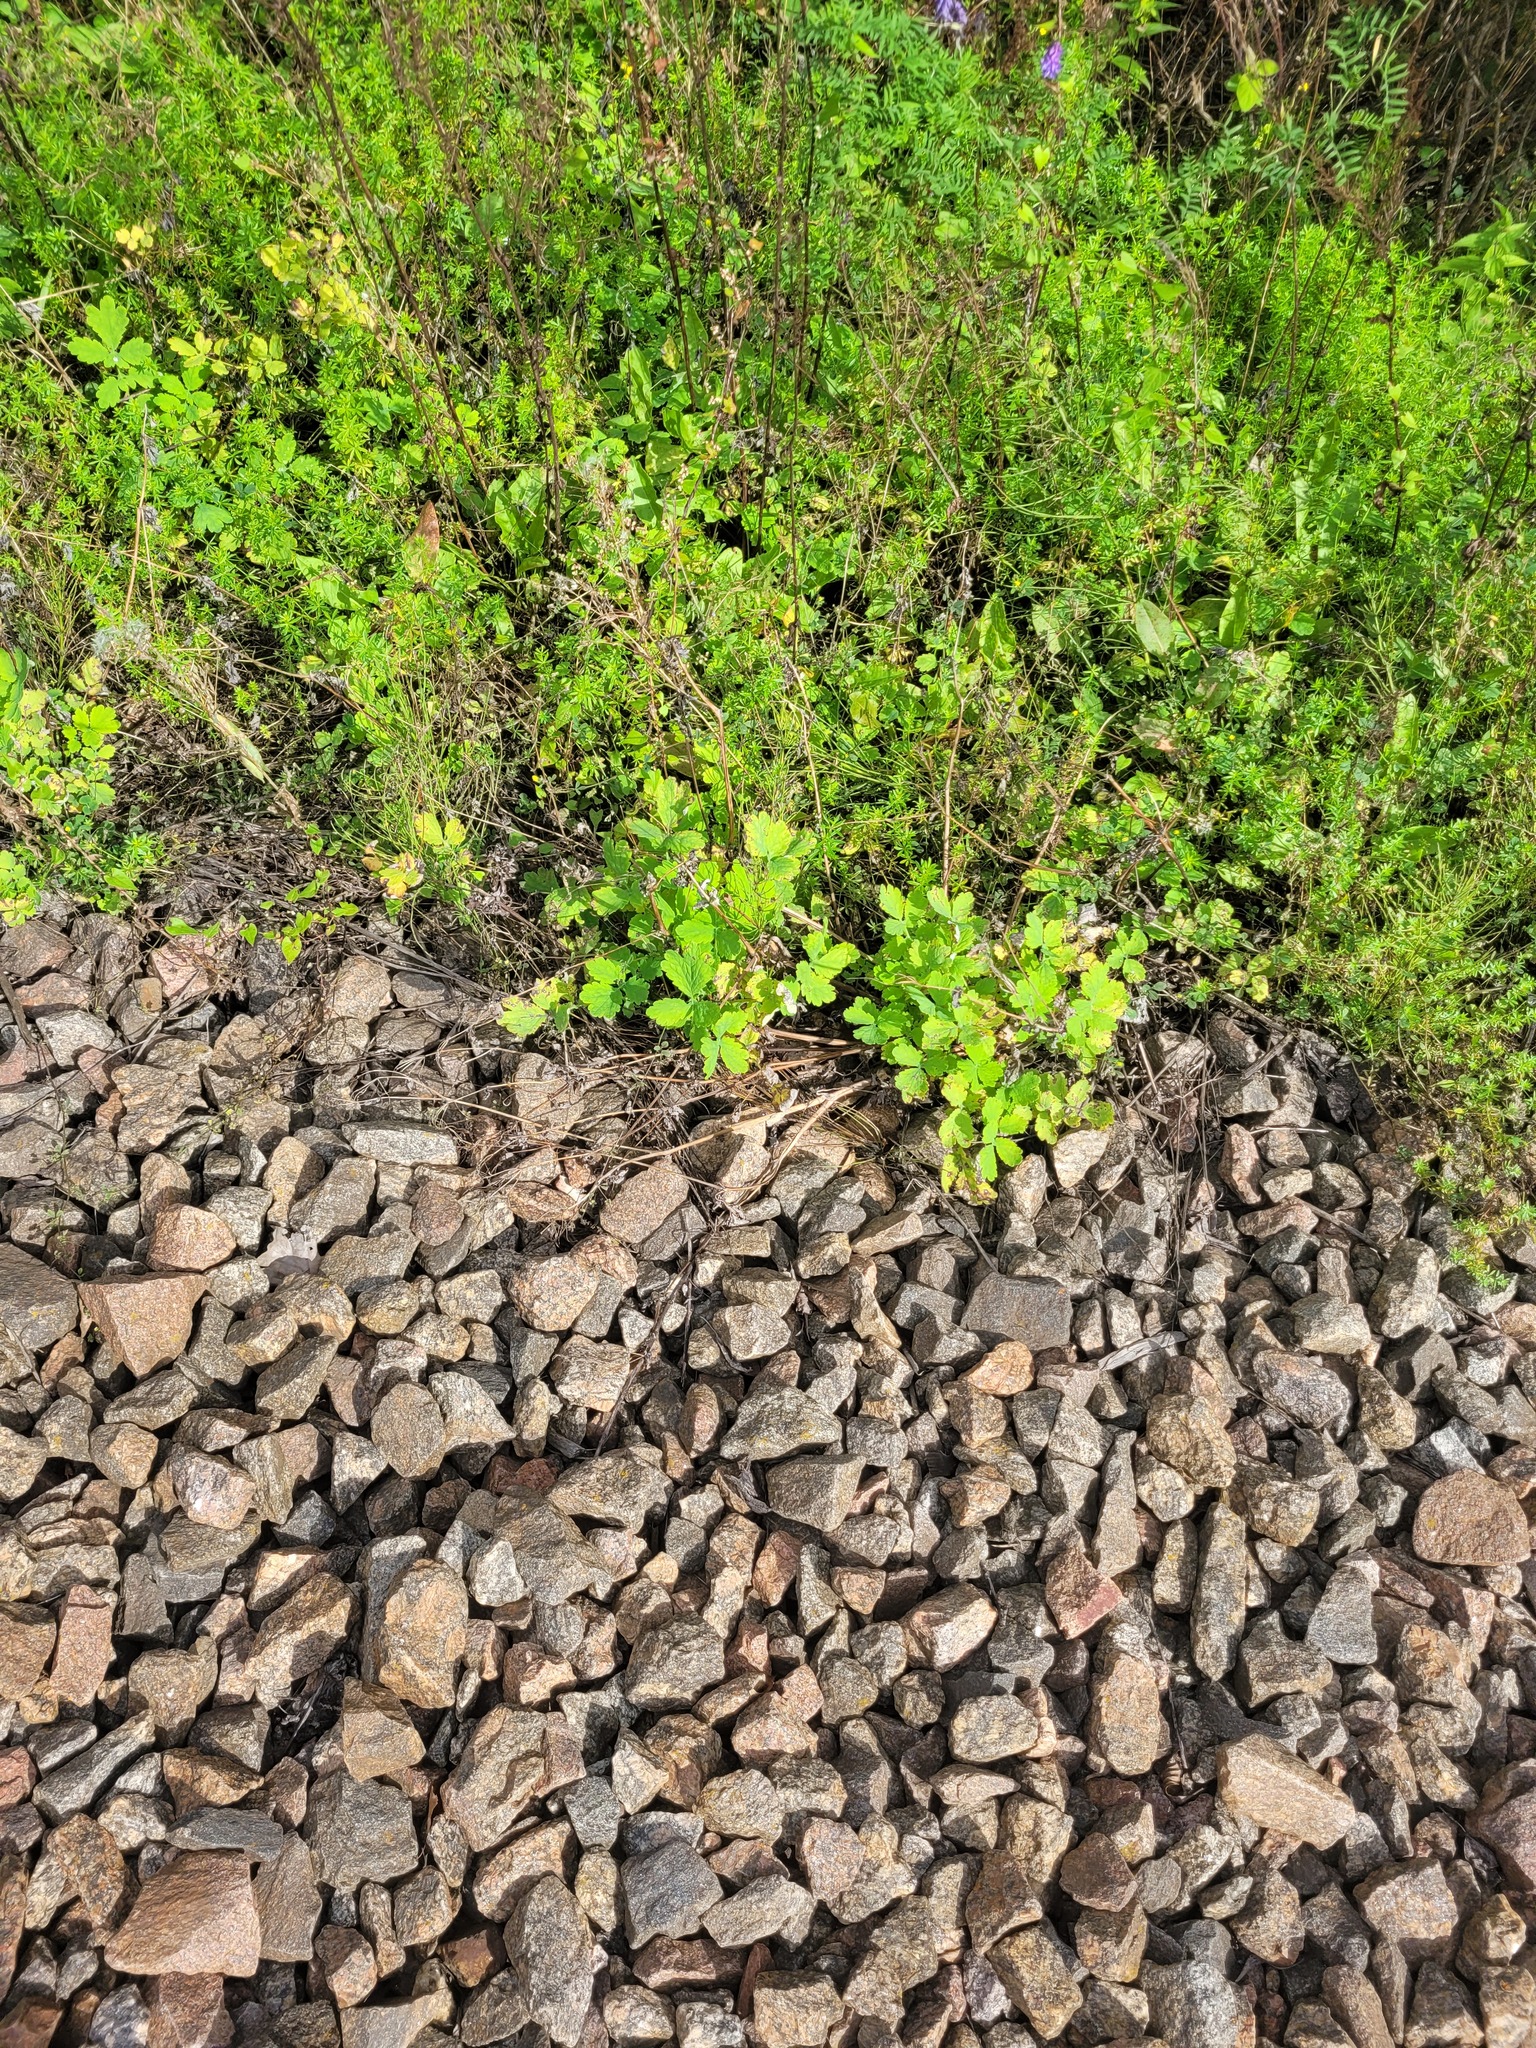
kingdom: Plantae
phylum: Tracheophyta
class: Magnoliopsida
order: Ranunculales
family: Papaveraceae
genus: Chelidonium
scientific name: Chelidonium majus
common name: Greater celandine
